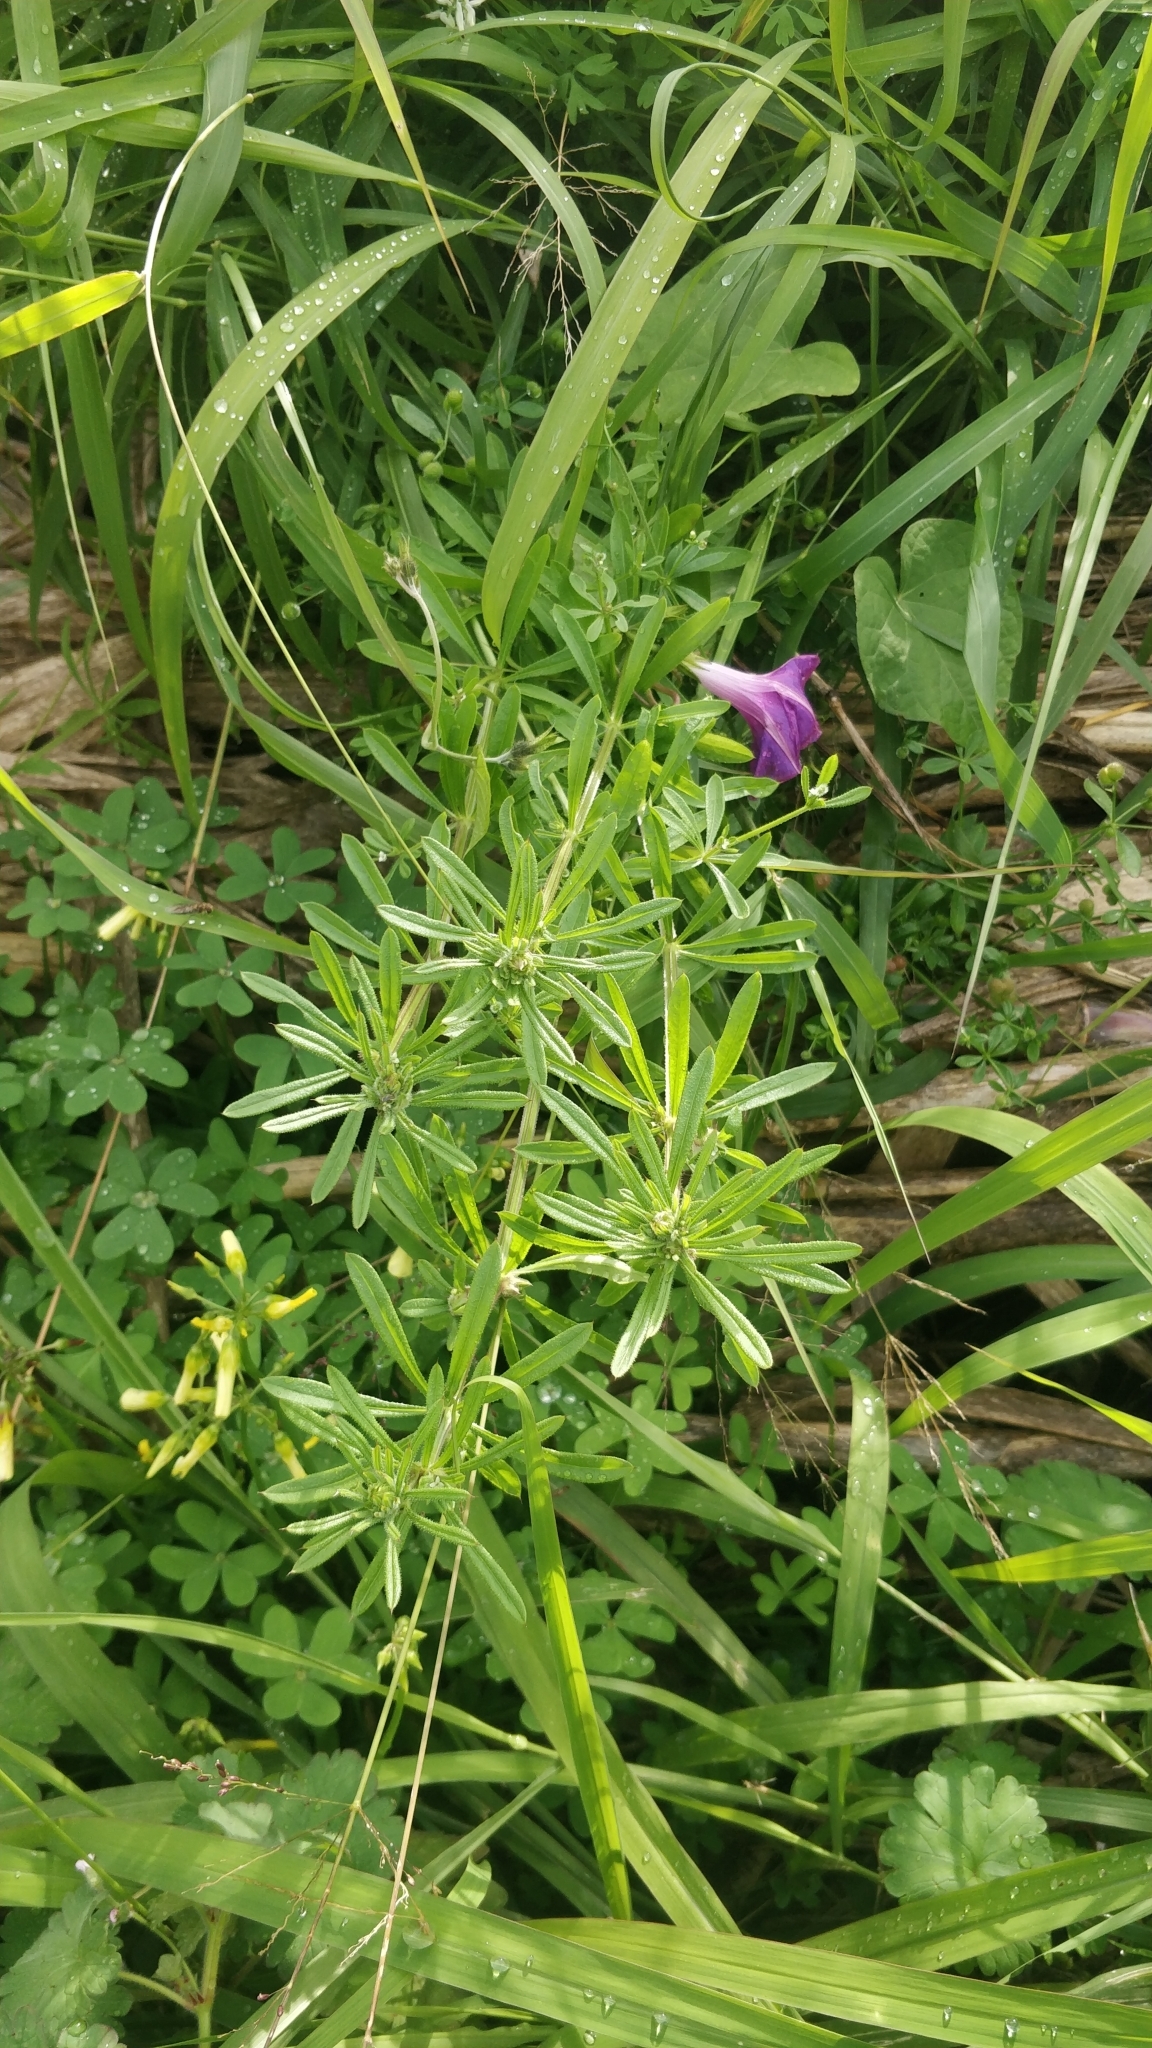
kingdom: Plantae
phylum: Tracheophyta
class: Magnoliopsida
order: Gentianales
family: Rubiaceae
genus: Galium
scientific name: Galium aparine
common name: Cleavers
